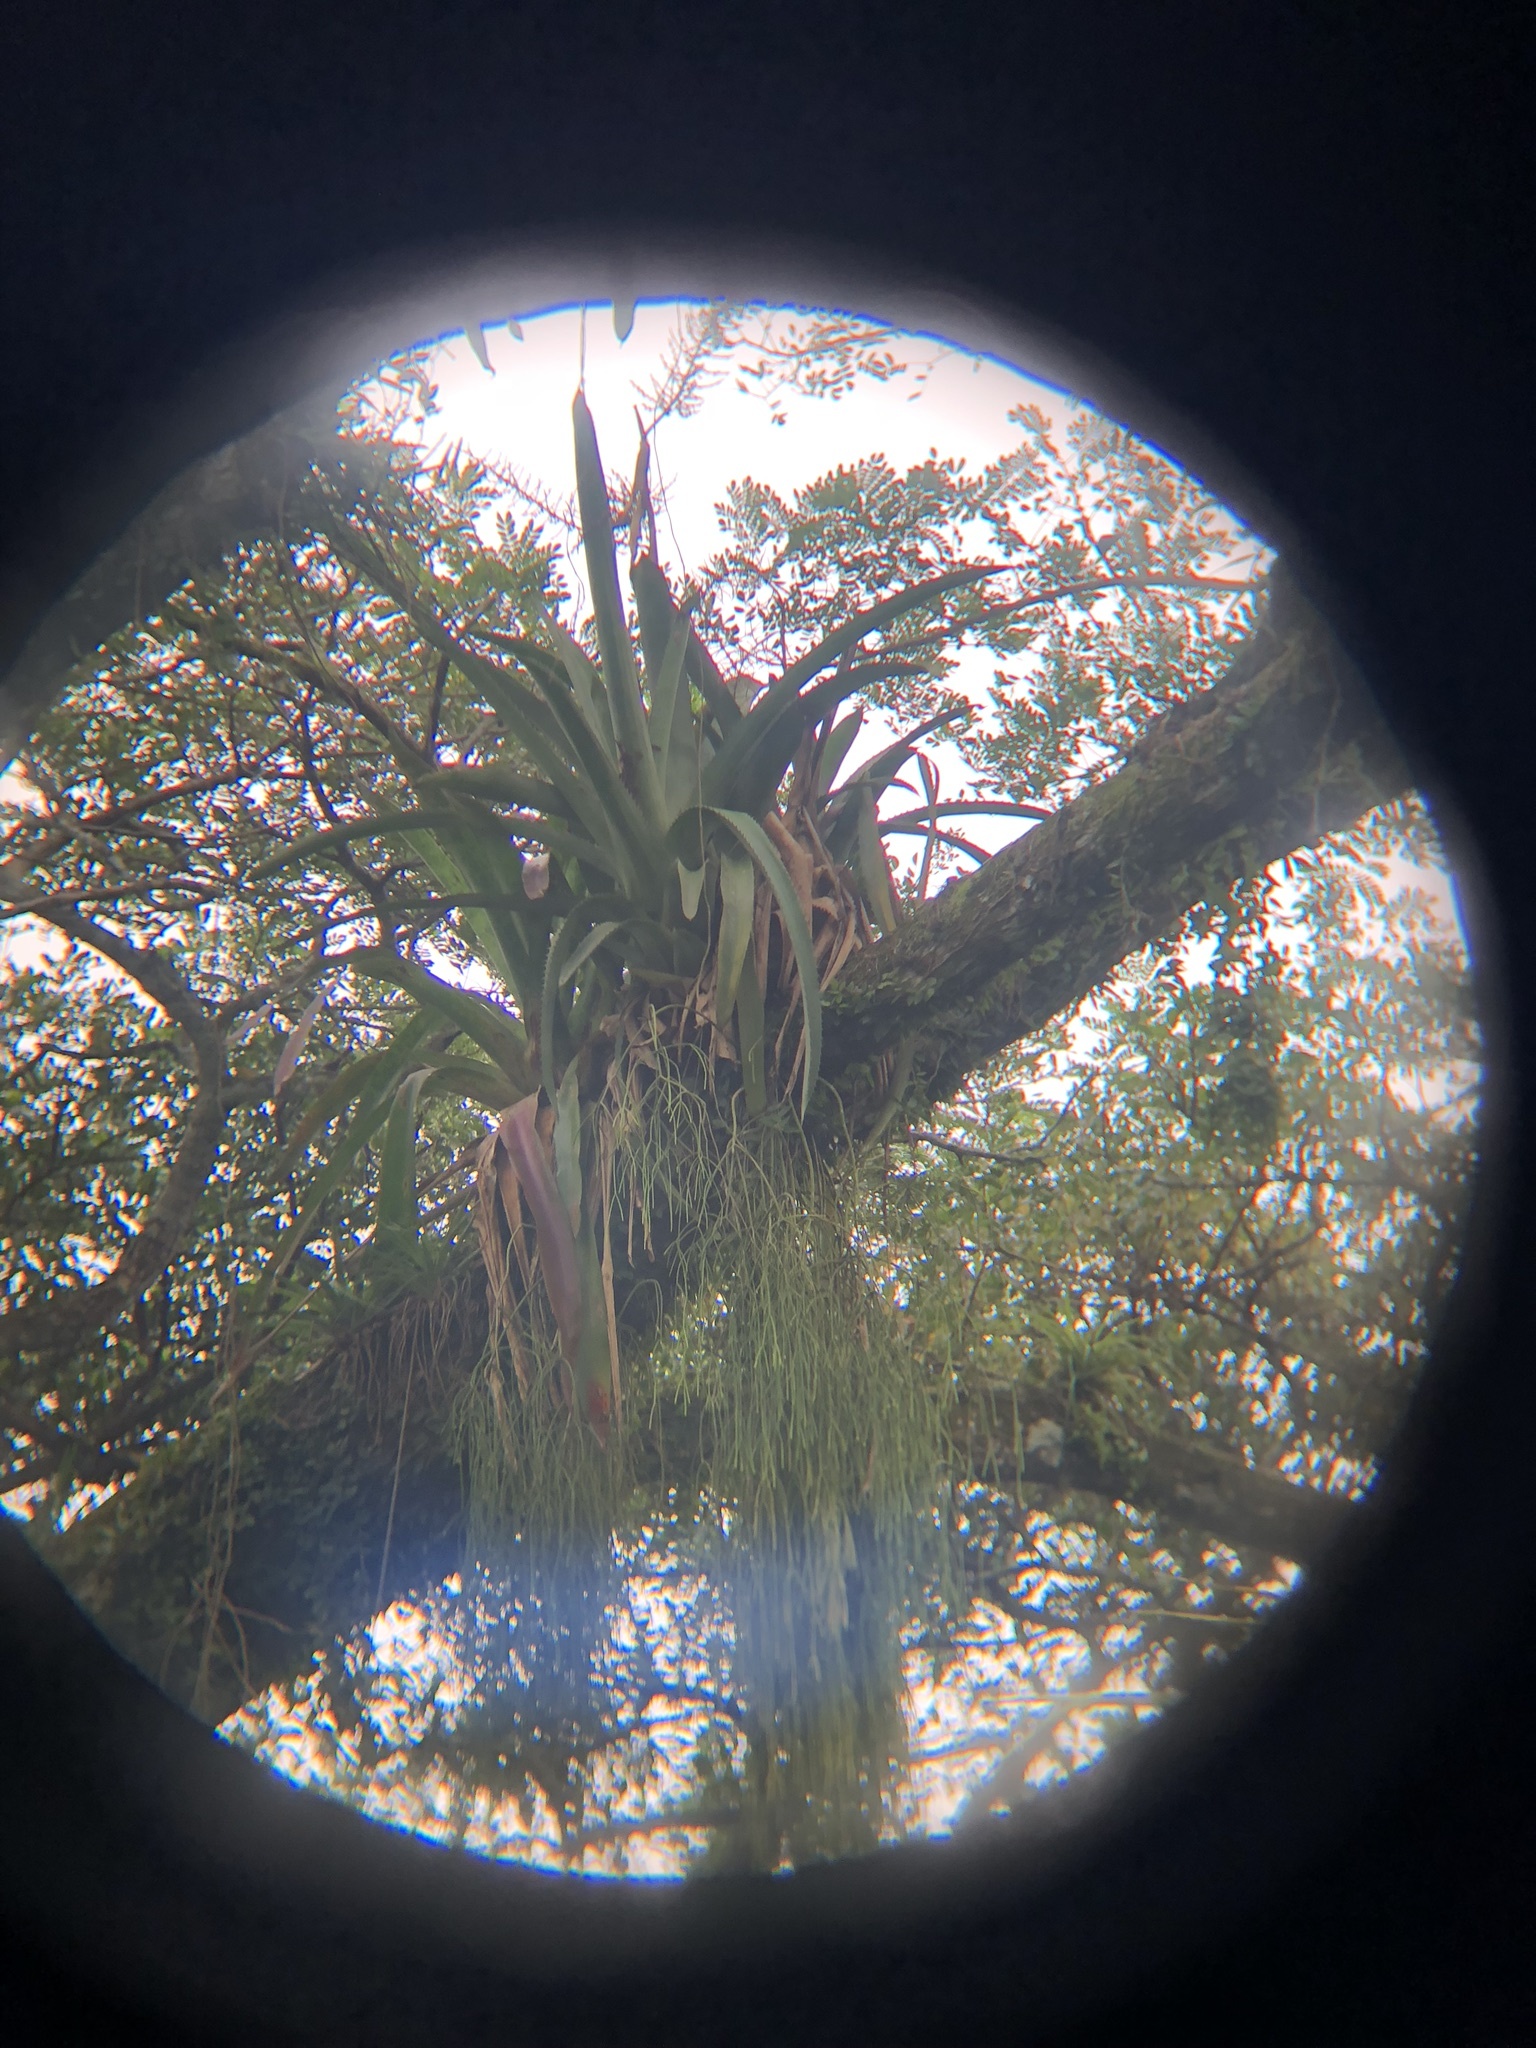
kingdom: Plantae
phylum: Tracheophyta
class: Liliopsida
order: Poales
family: Bromeliaceae
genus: Aechmea
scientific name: Aechmea bracteata
